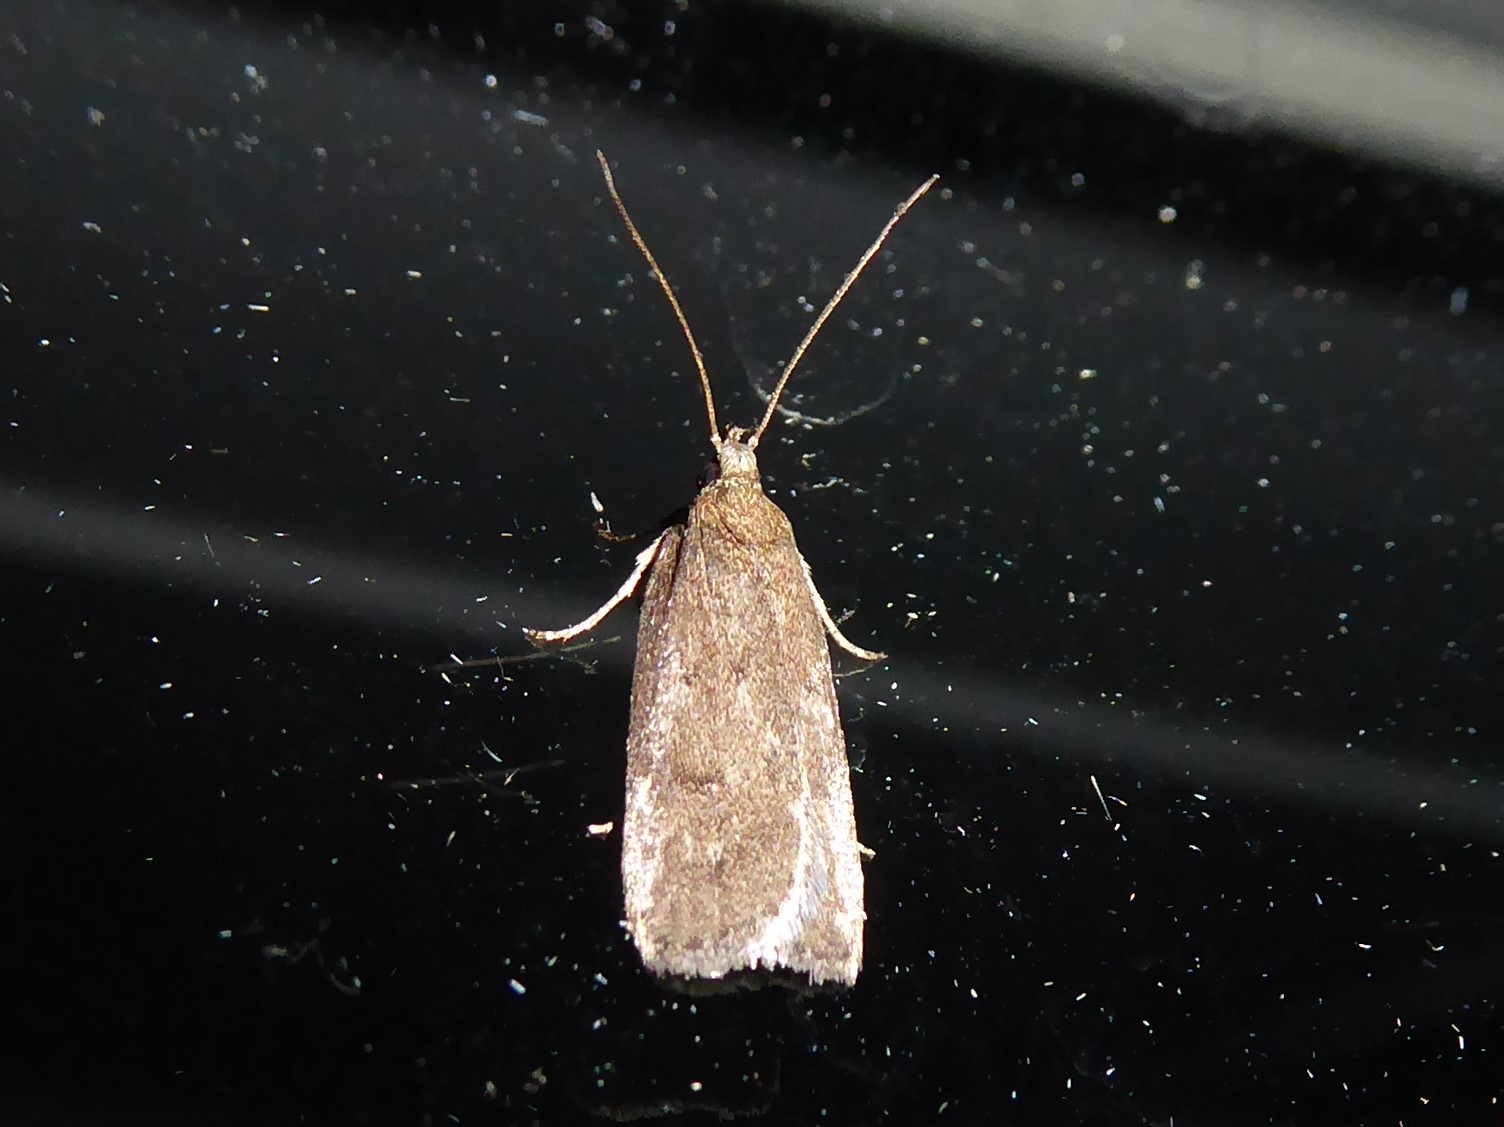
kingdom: Animalia
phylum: Arthropoda
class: Insecta
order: Lepidoptera
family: Depressariidae
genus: Phaeosaces
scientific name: Phaeosaces apocrypta
